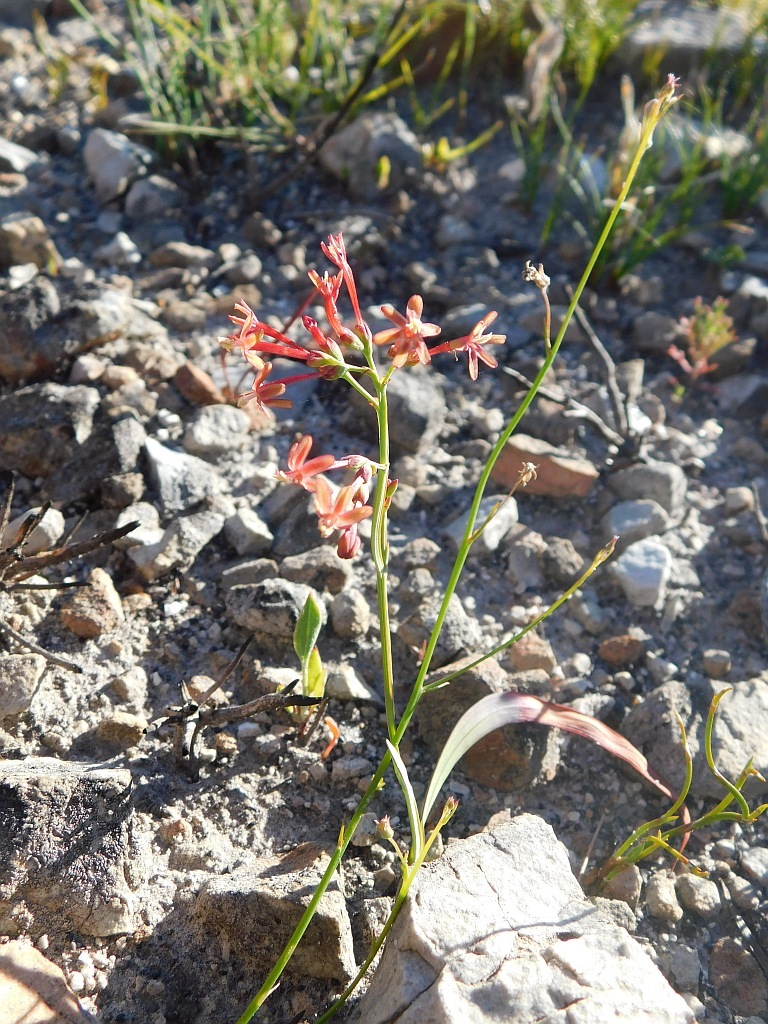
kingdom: Plantae
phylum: Tracheophyta
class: Liliopsida
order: Asparagales
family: Iridaceae
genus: Codonorhiza
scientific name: Codonorhiza micrantha
